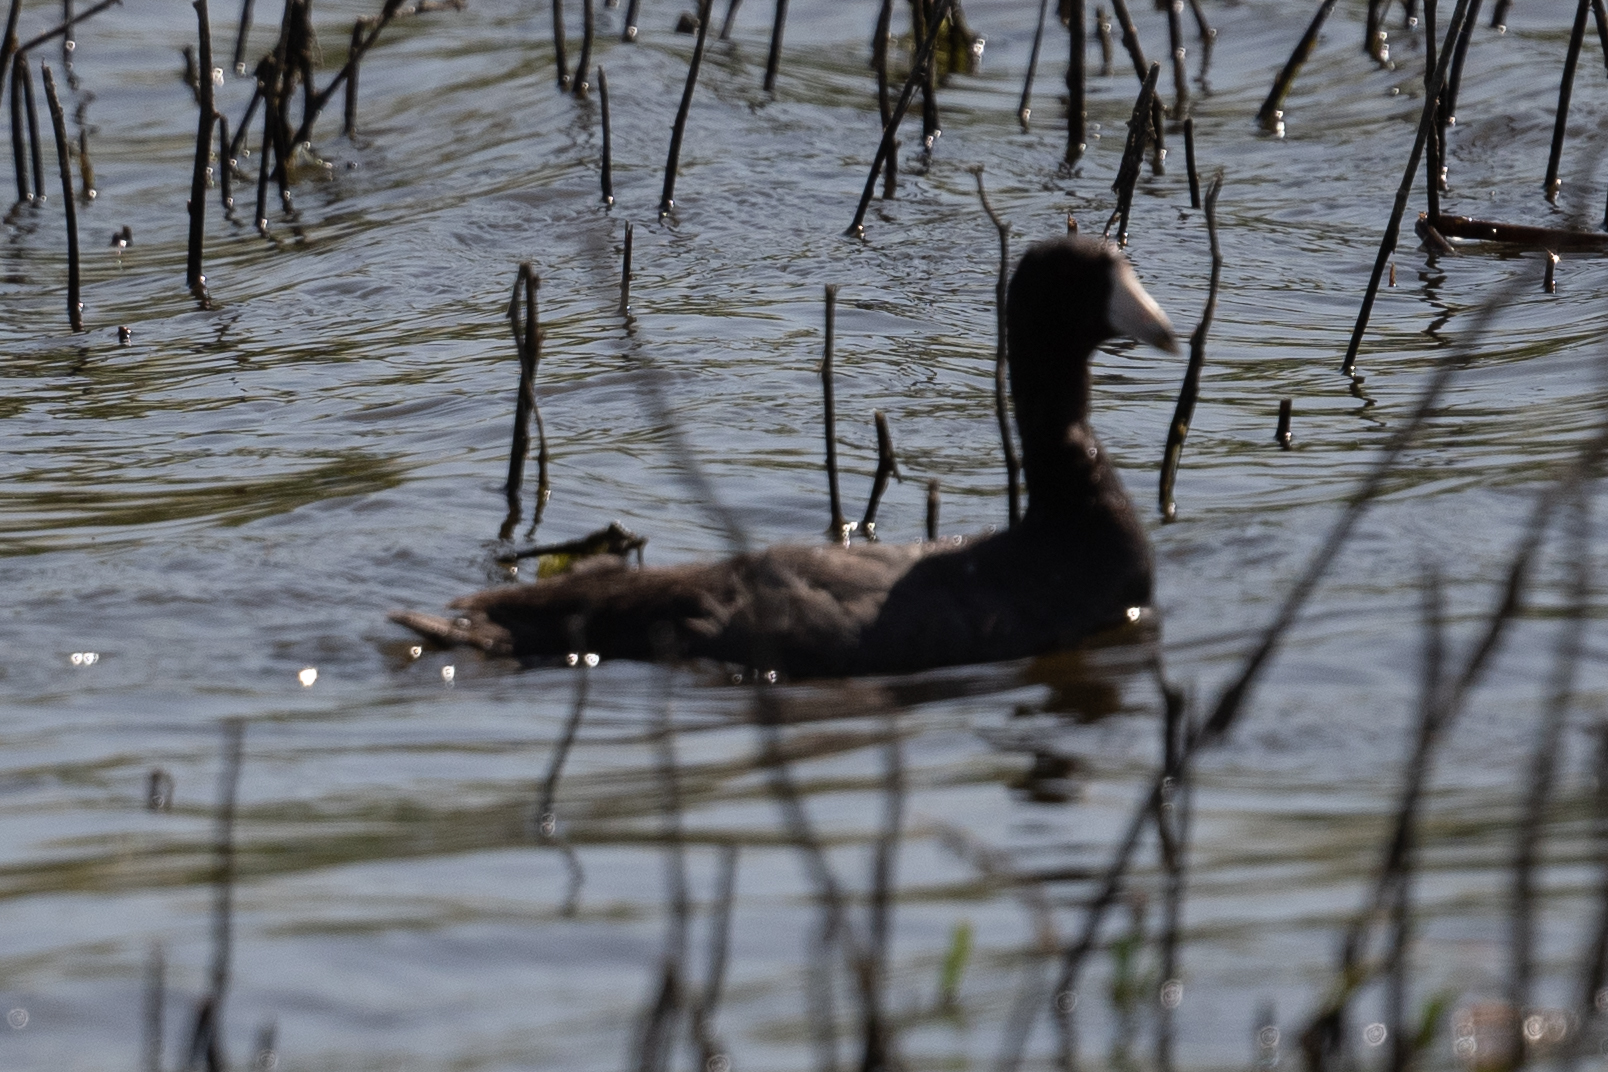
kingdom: Animalia
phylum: Chordata
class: Aves
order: Gruiformes
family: Rallidae
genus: Fulica
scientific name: Fulica americana
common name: American coot
